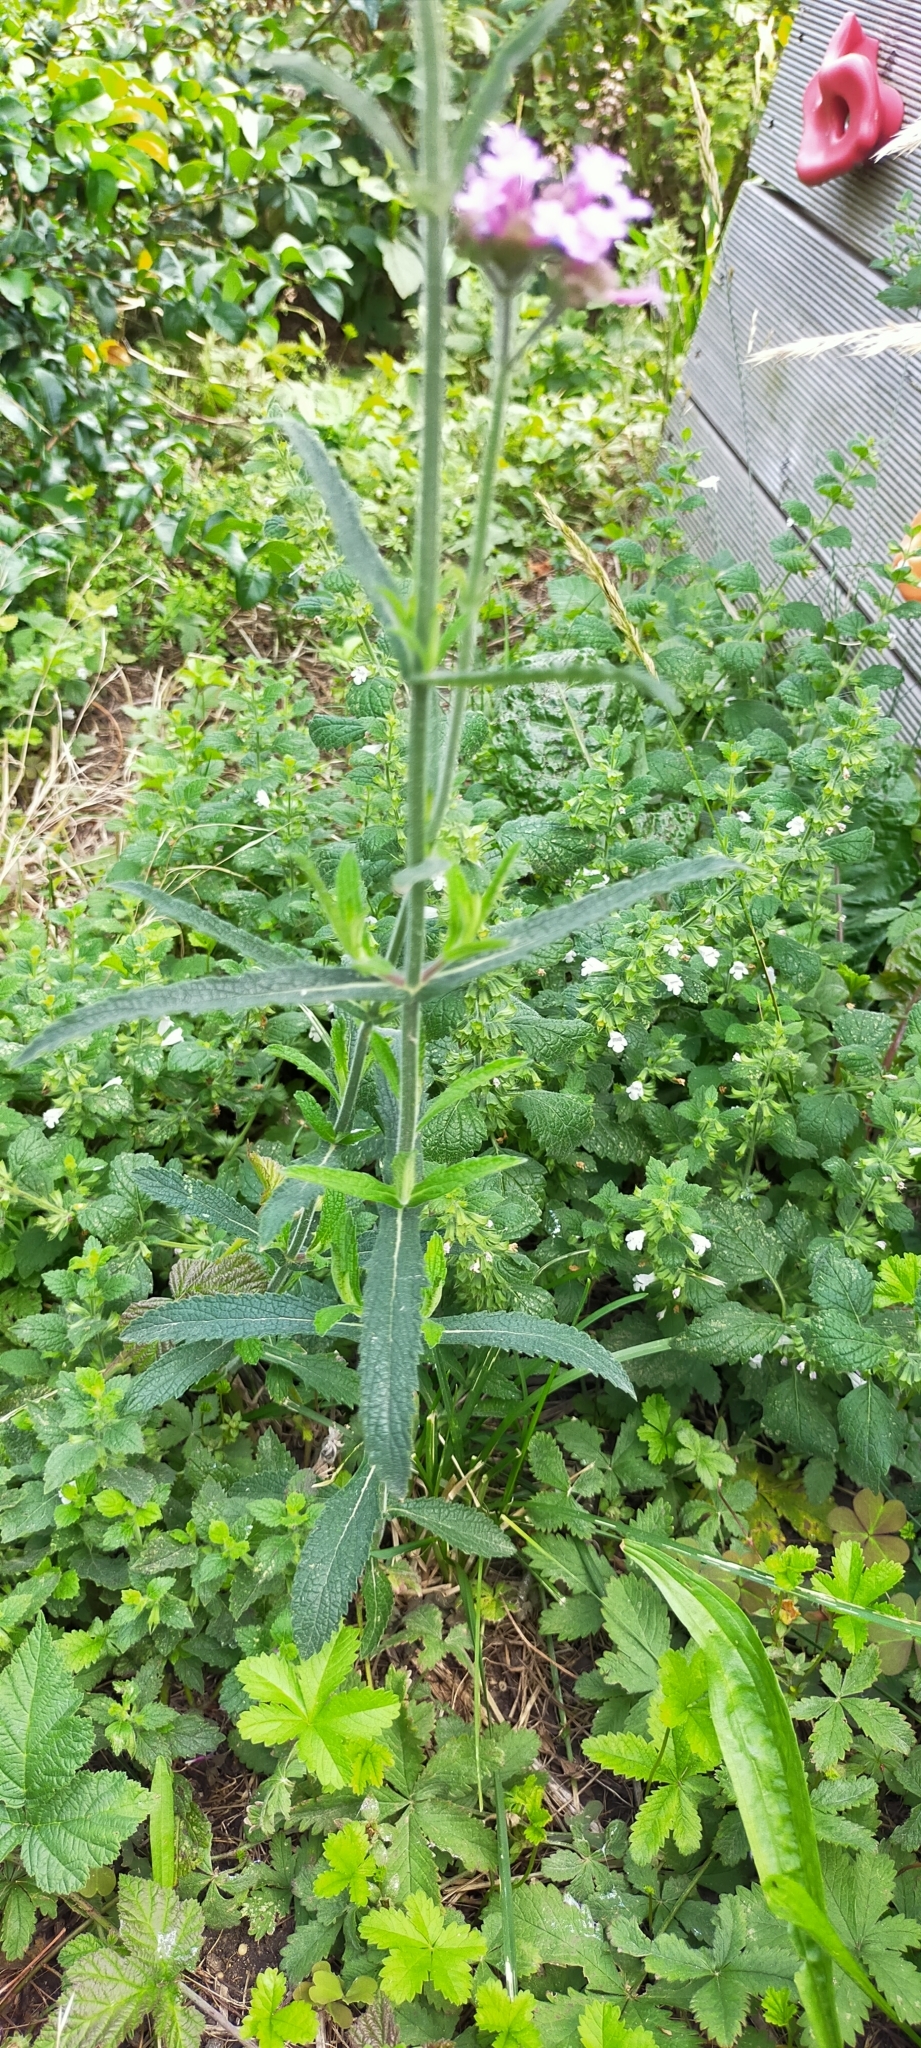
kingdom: Plantae
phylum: Tracheophyta
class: Magnoliopsida
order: Lamiales
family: Verbenaceae
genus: Verbena
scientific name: Verbena bonariensis
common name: Purpletop vervain
